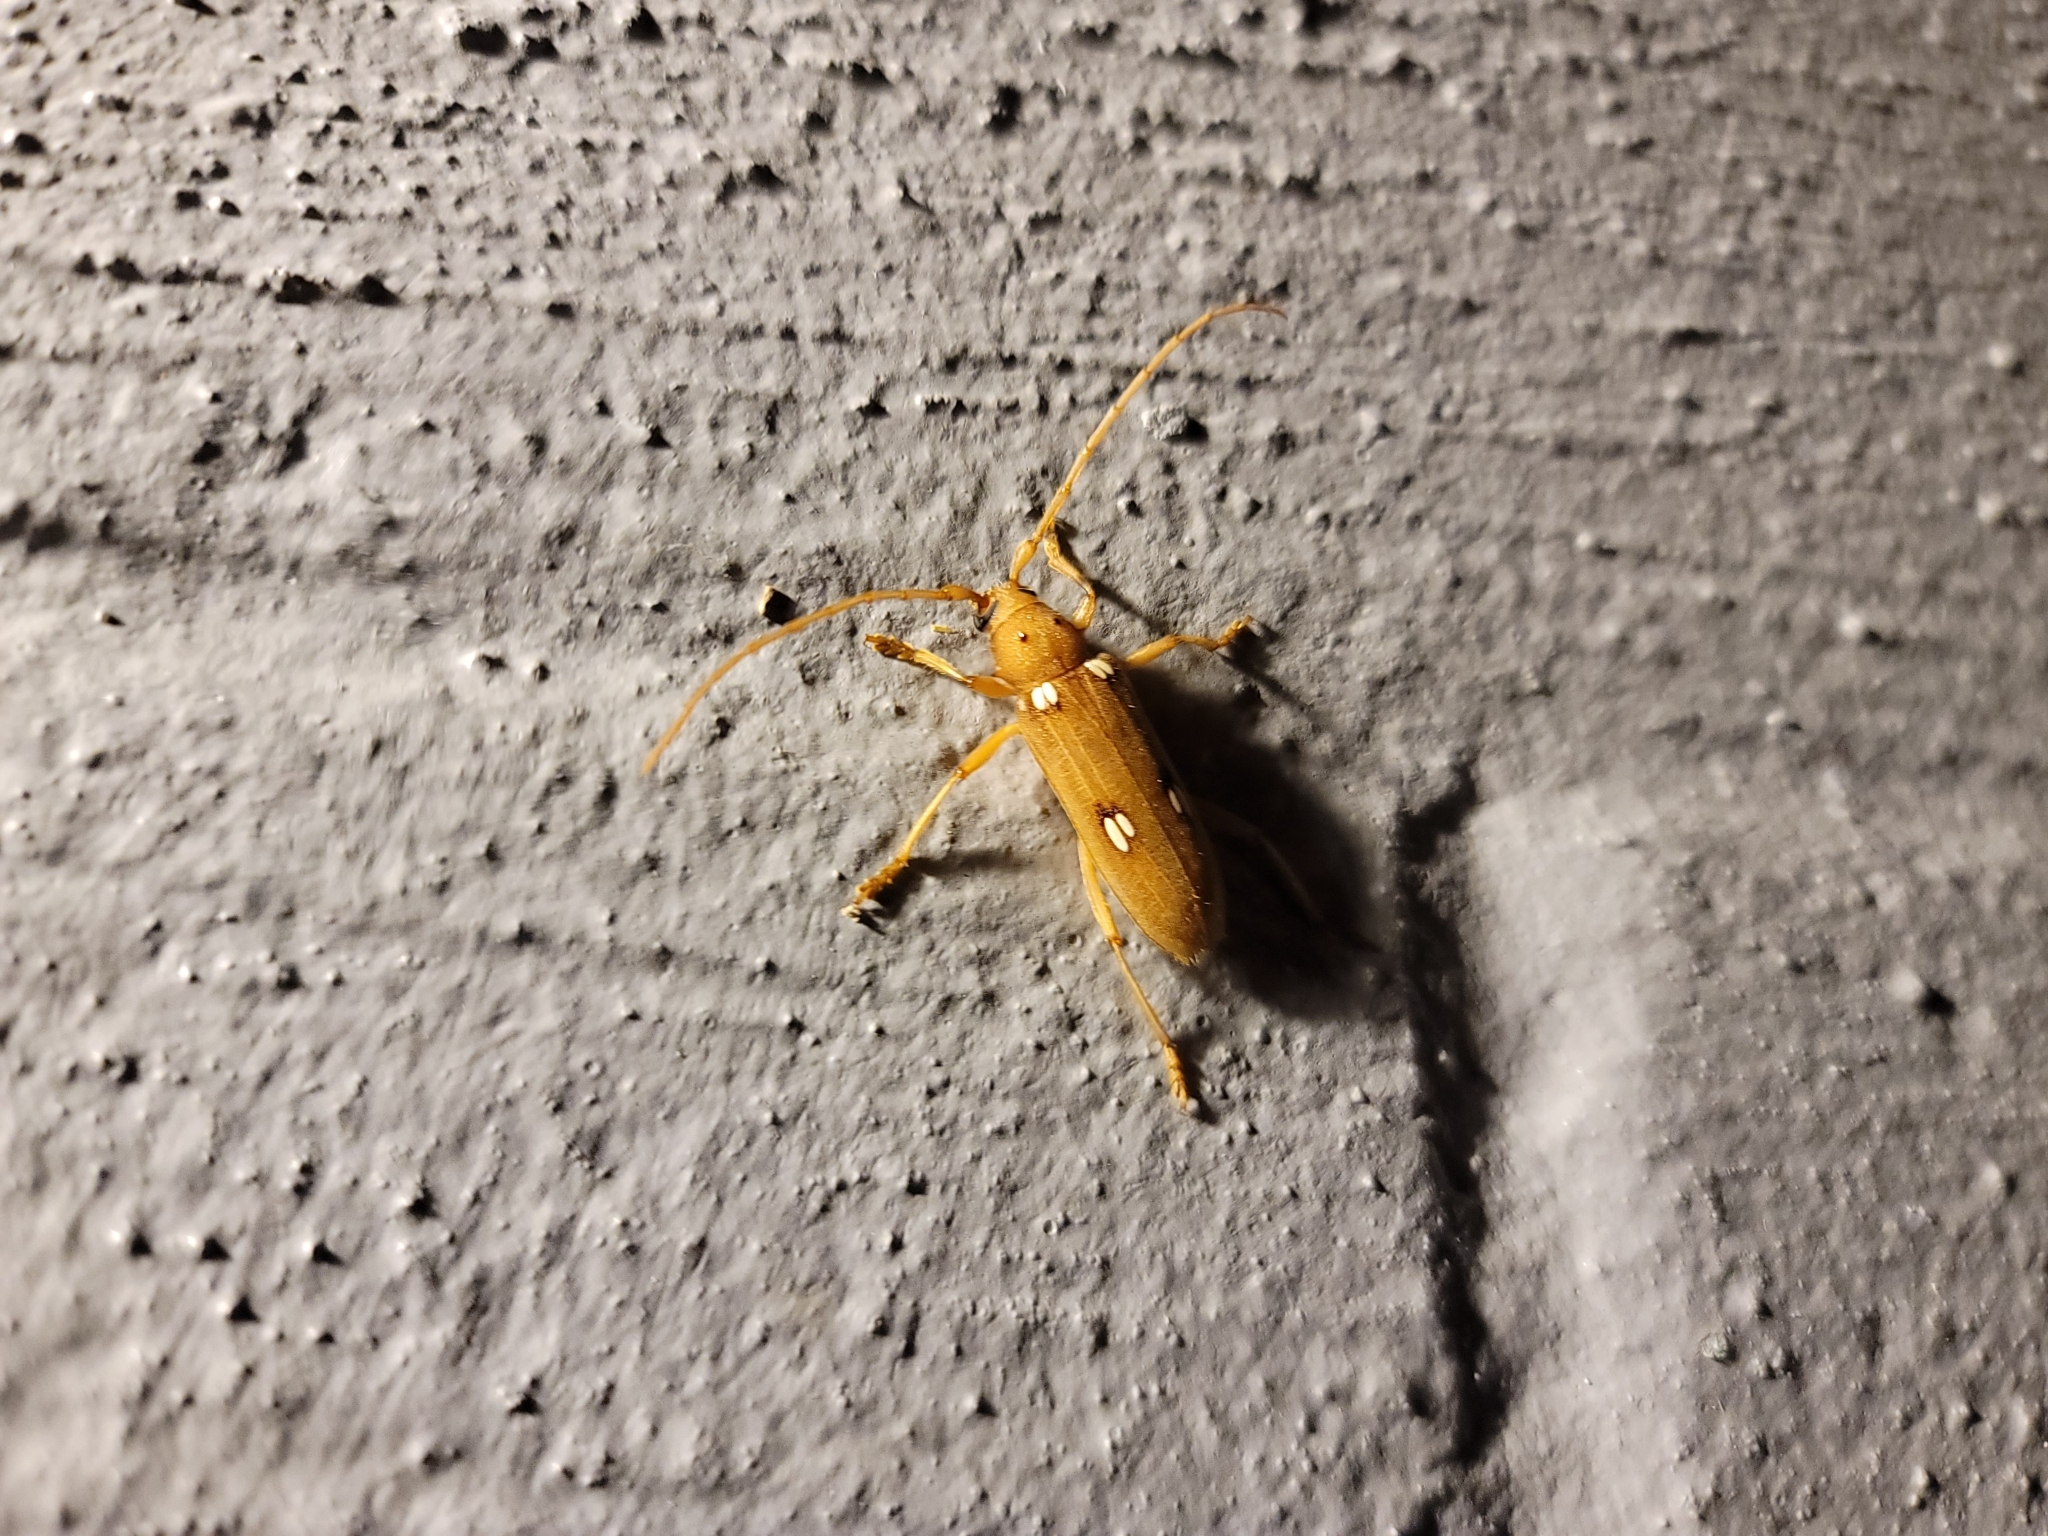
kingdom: Animalia
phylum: Arthropoda
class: Insecta
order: Coleoptera
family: Cerambycidae
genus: Eburia
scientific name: Eburia quadrigeminata
